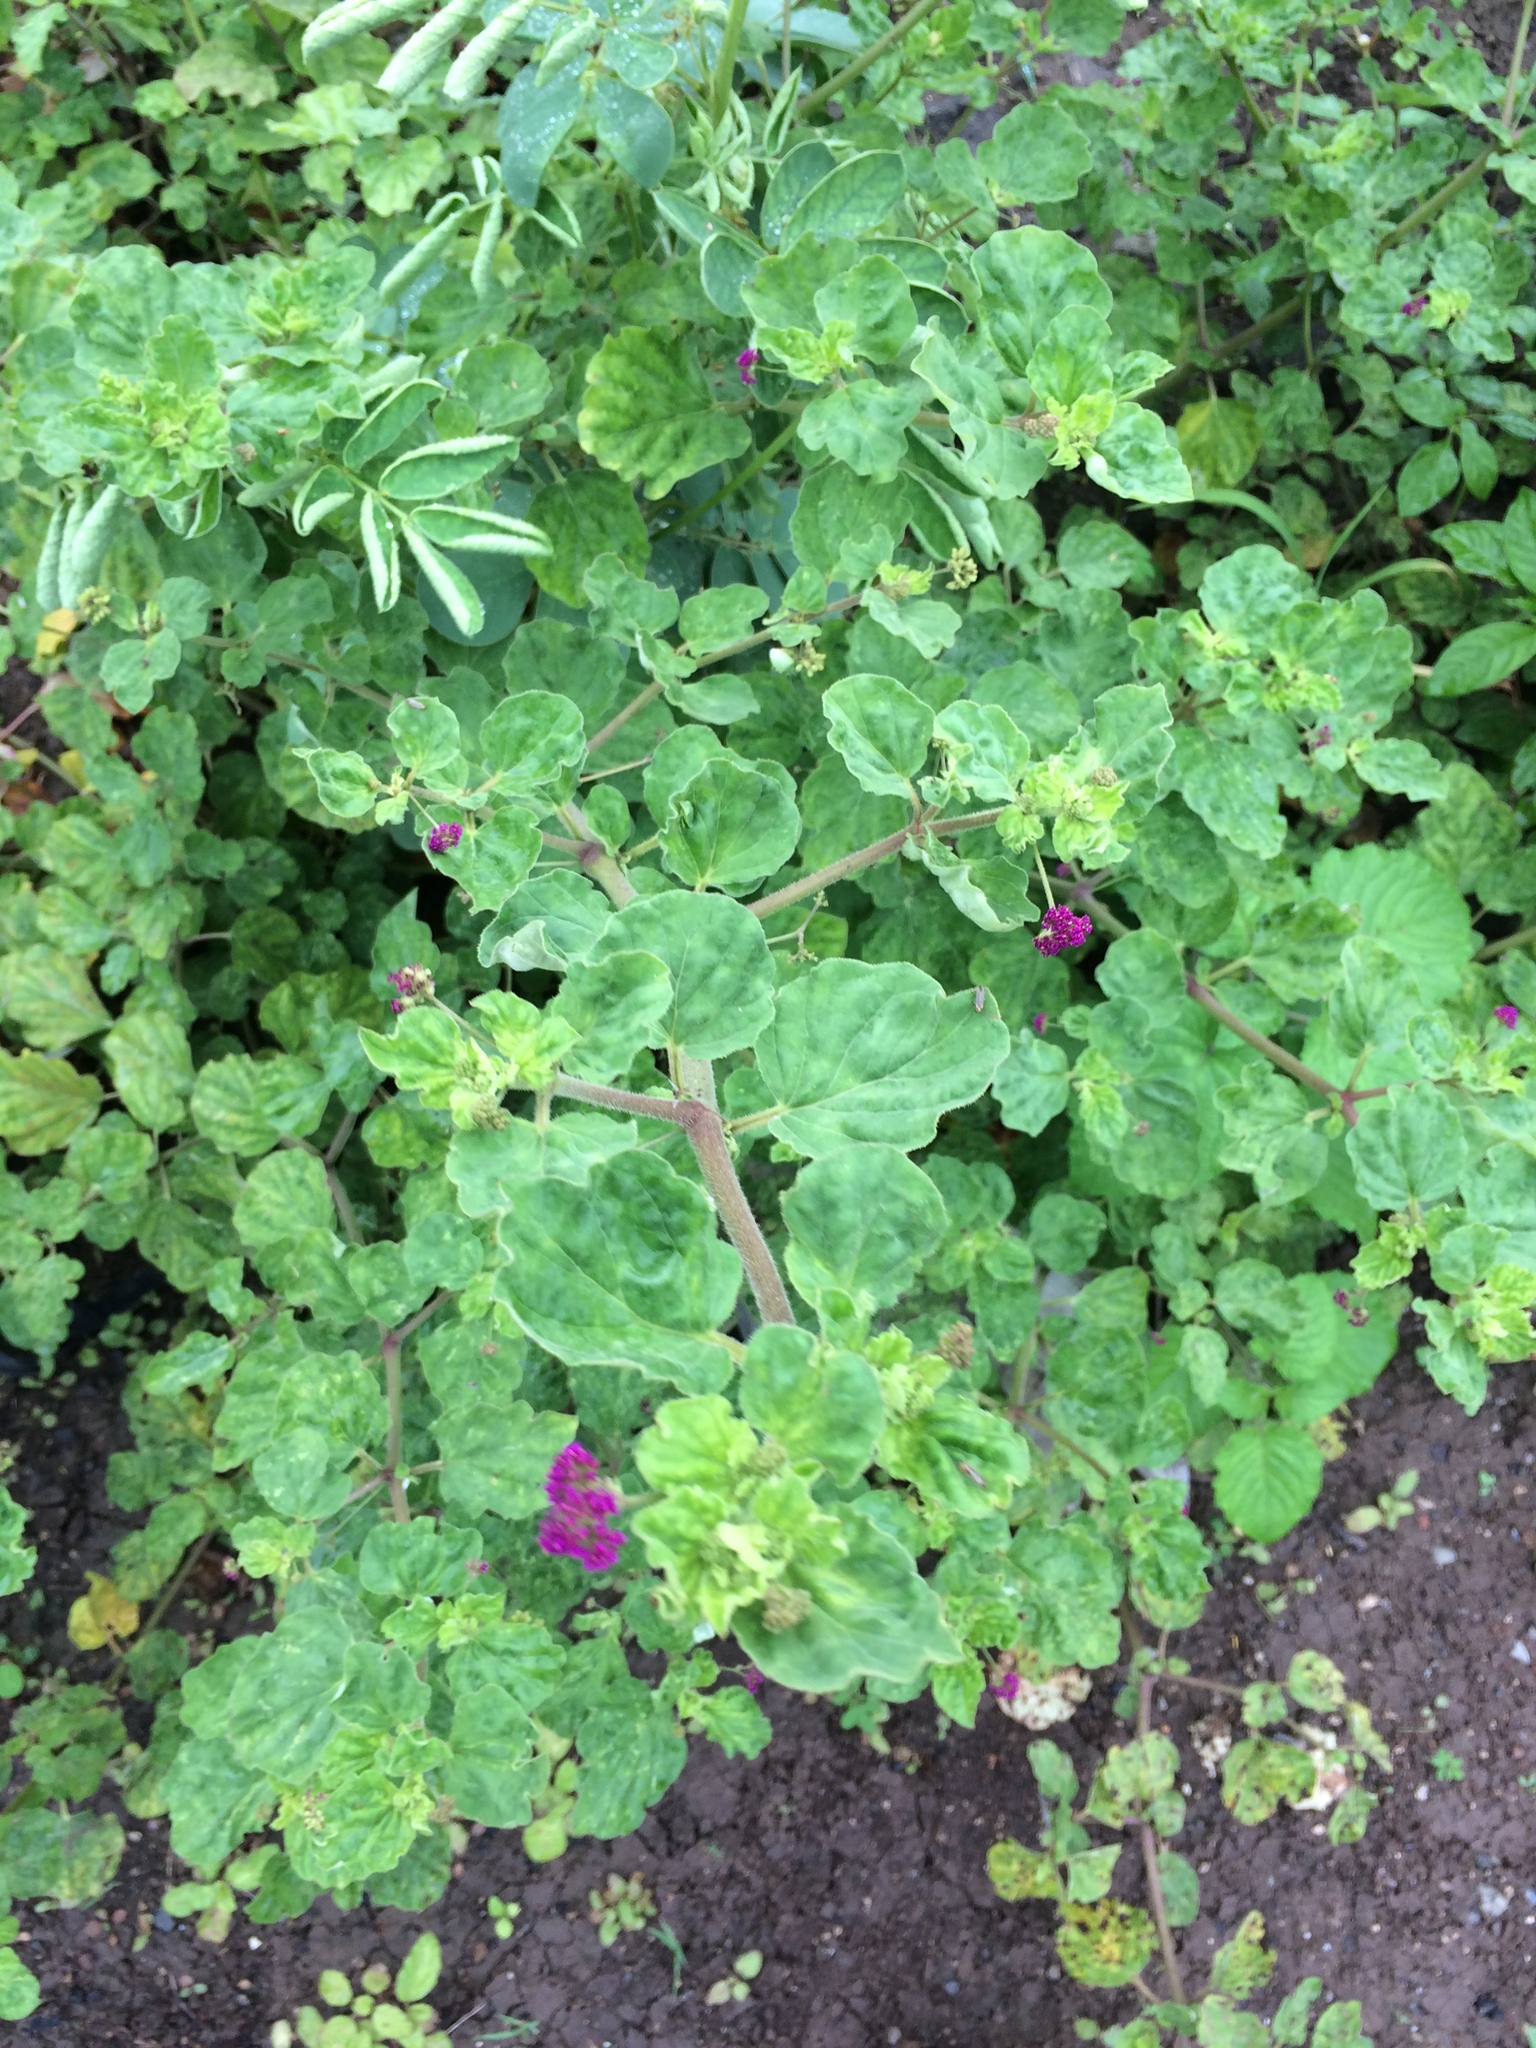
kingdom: Plantae
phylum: Tracheophyta
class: Magnoliopsida
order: Caryophyllales
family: Nyctaginaceae
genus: Boerhavia
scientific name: Boerhavia diffusa
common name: Red spiderling
